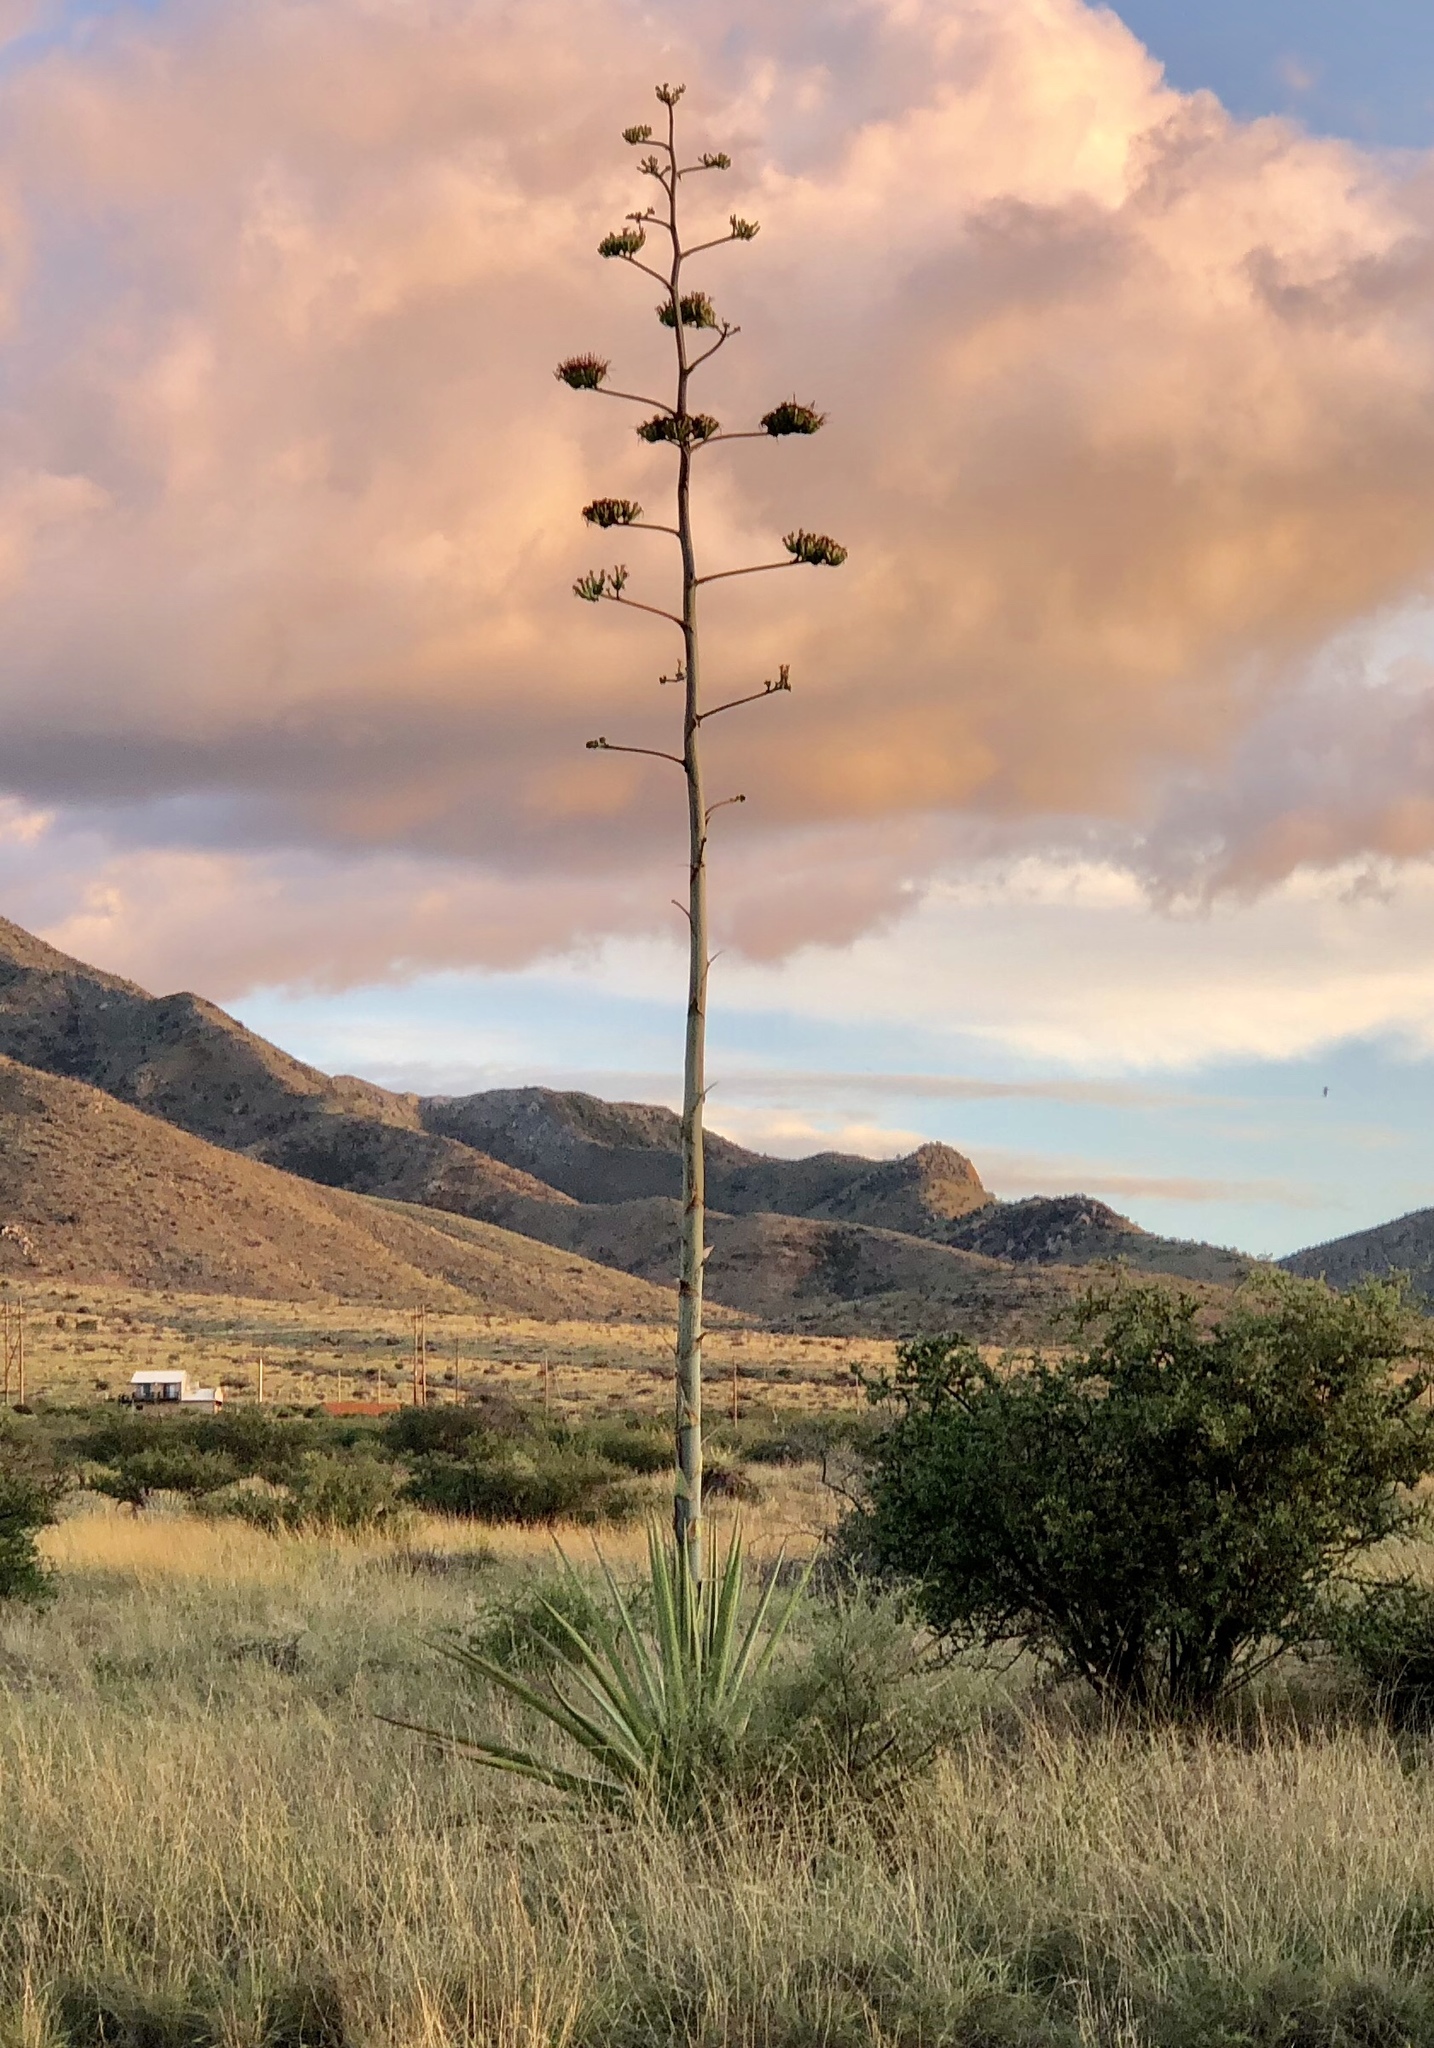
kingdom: Plantae
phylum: Tracheophyta
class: Liliopsida
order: Asparagales
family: Asparagaceae
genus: Agave
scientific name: Agave palmeri
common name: Palmer agave
